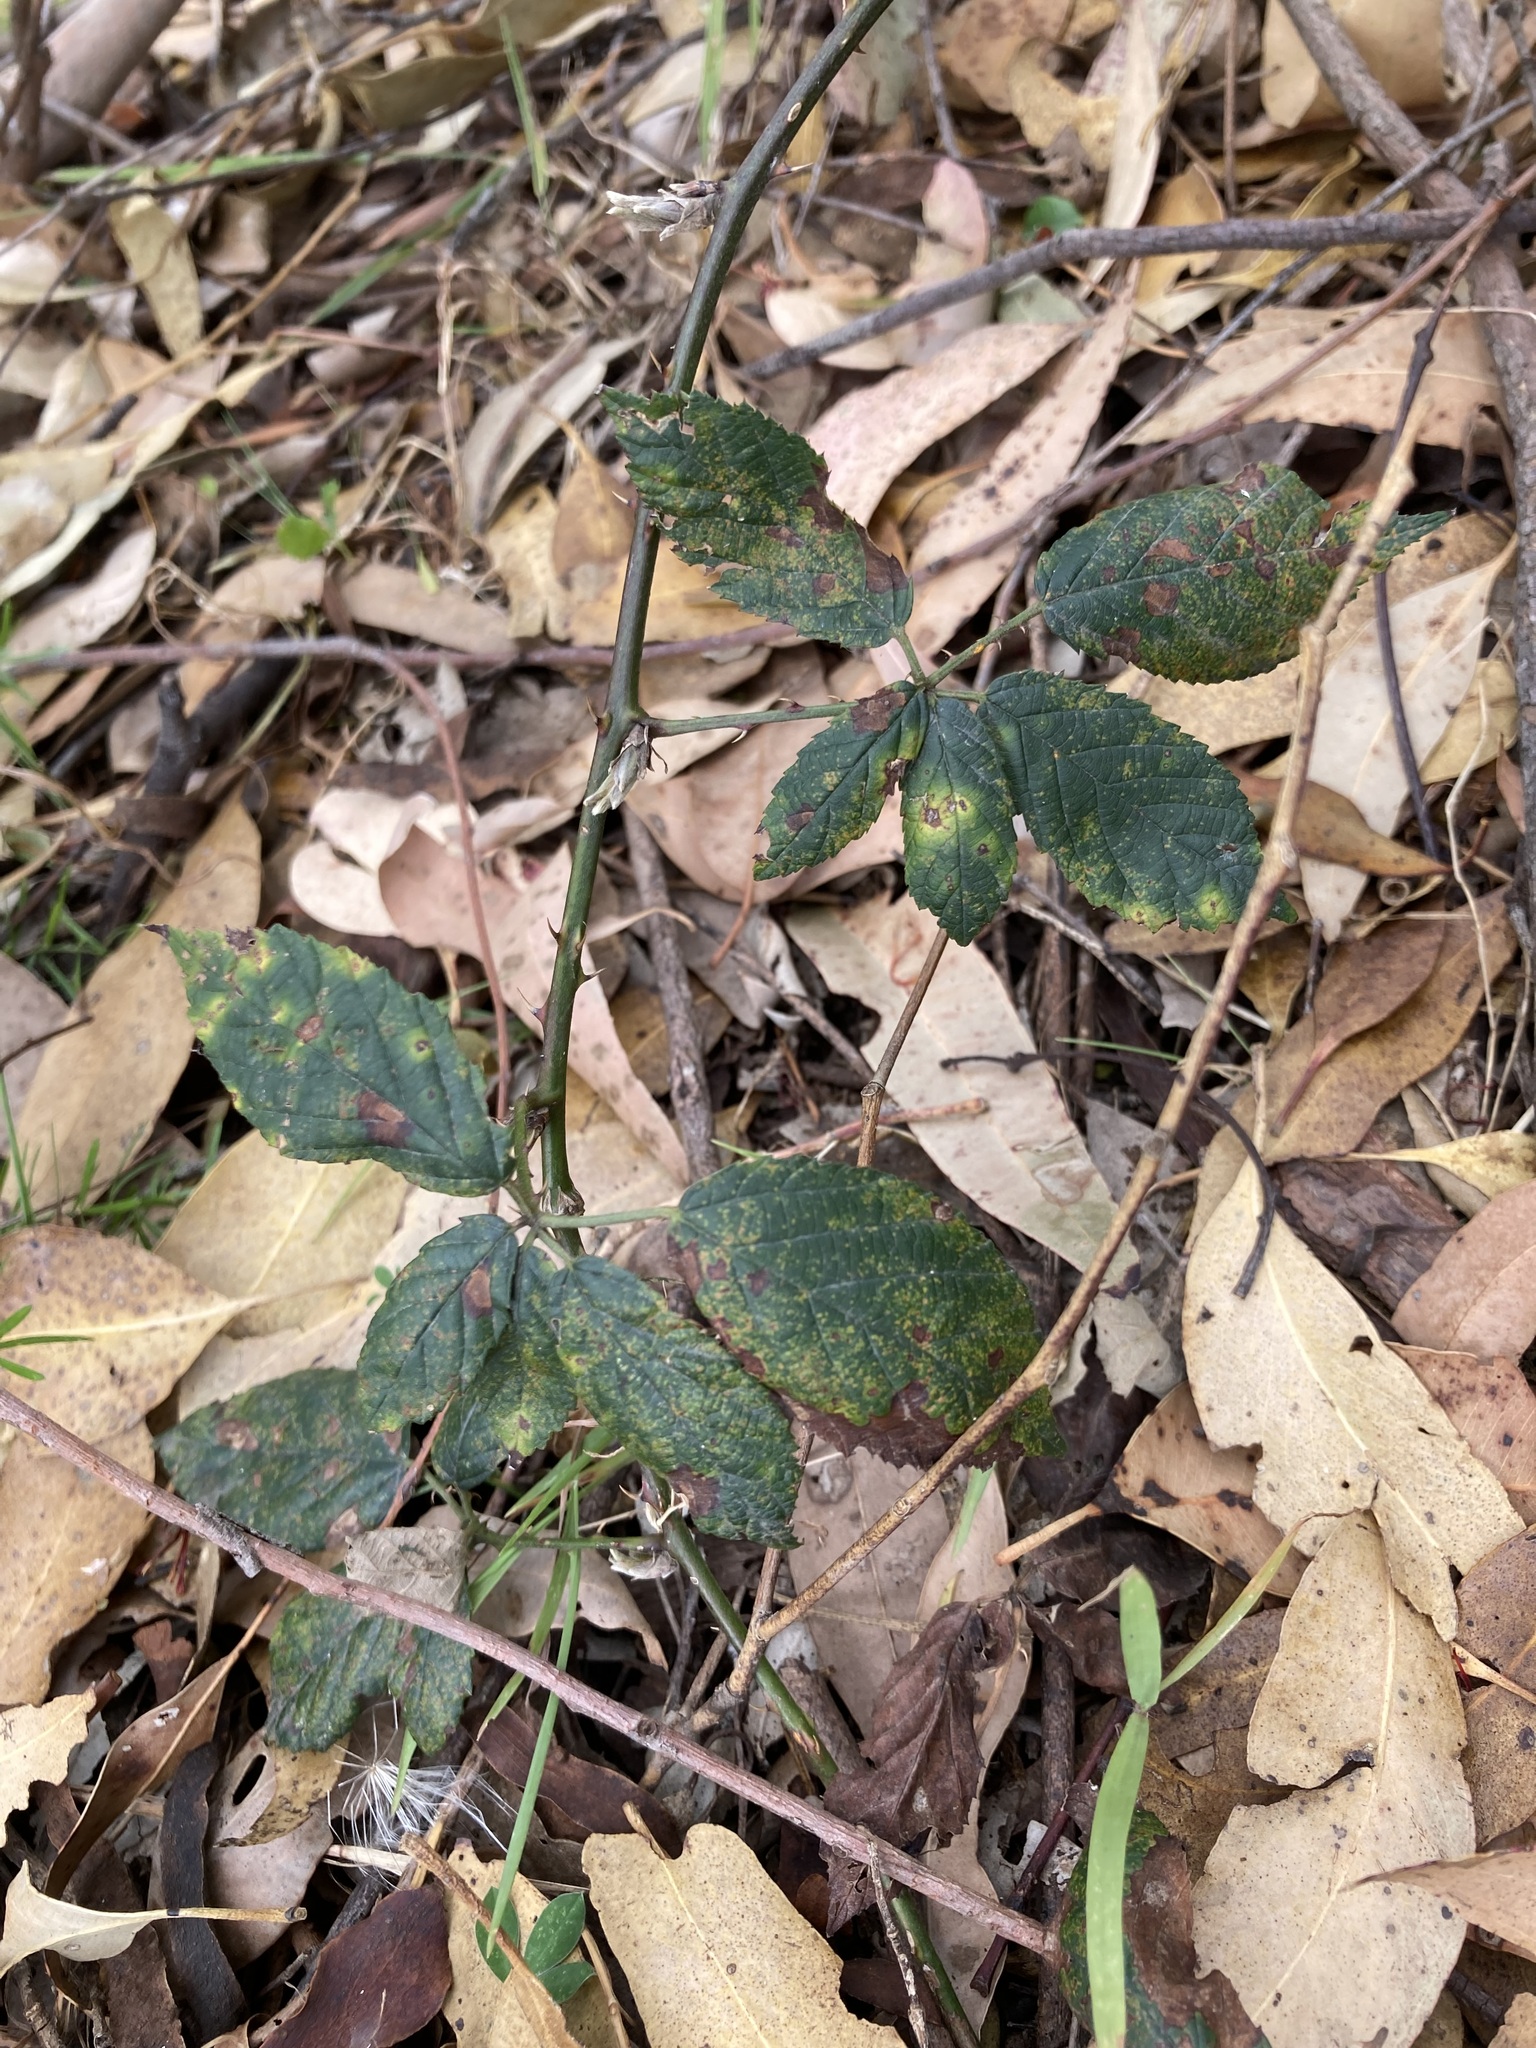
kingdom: Plantae
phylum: Tracheophyta
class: Magnoliopsida
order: Rosales
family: Rosaceae
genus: Rubus
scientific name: Rubus grabowskii
